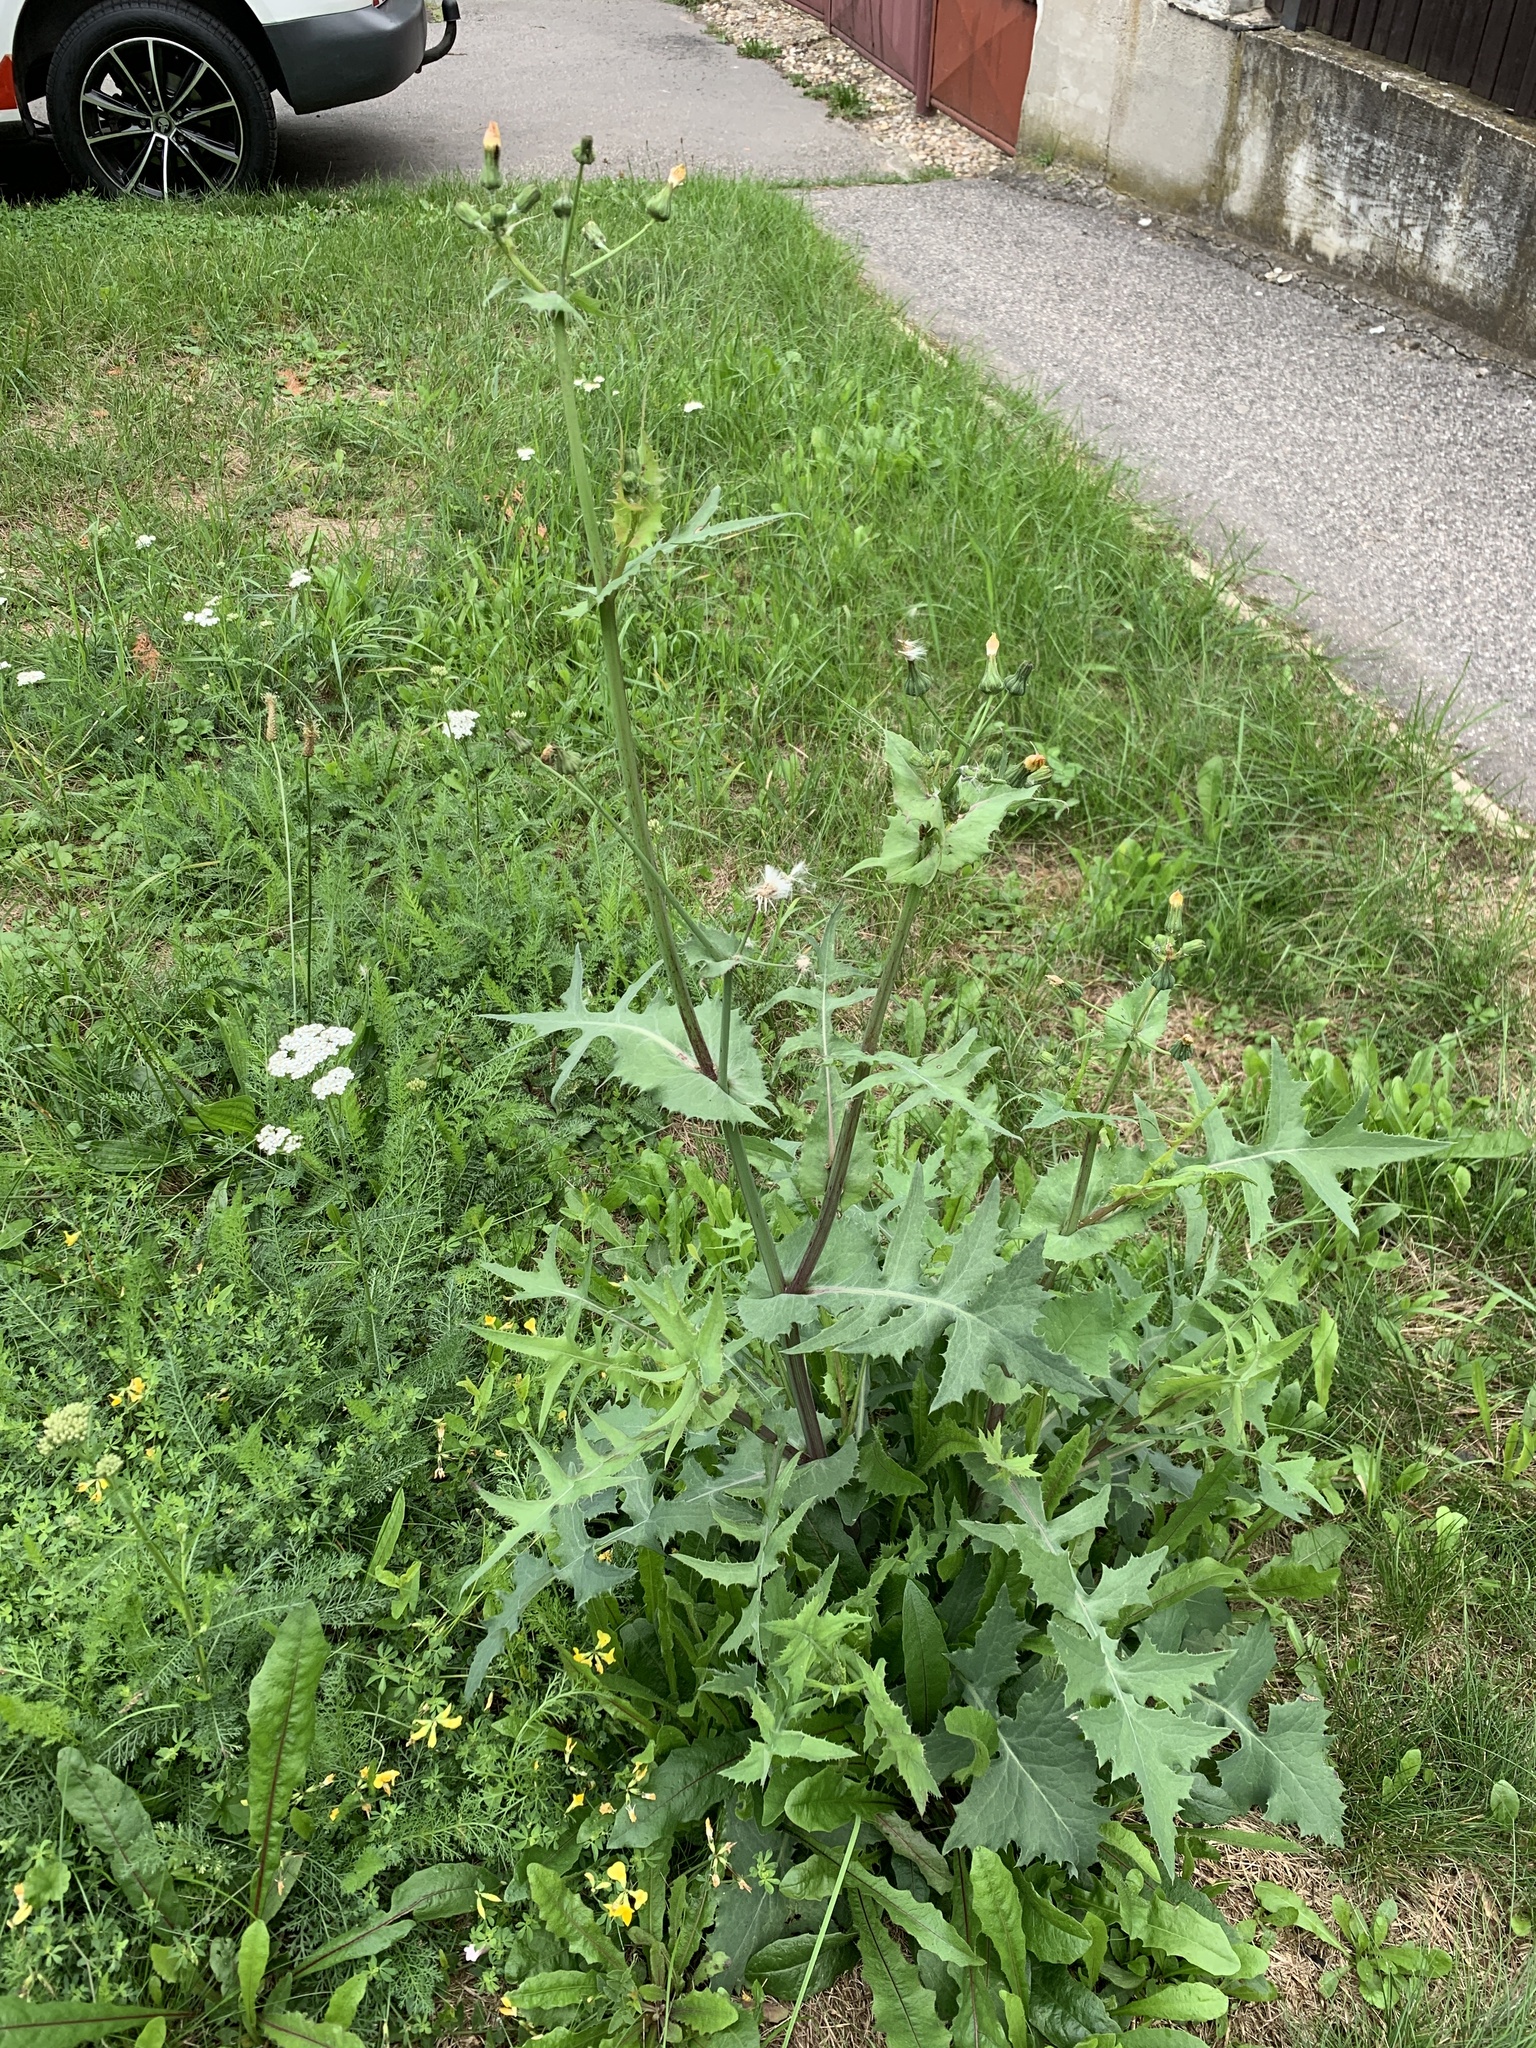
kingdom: Plantae
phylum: Tracheophyta
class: Magnoliopsida
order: Asterales
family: Asteraceae
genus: Sonchus
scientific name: Sonchus oleraceus
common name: Common sowthistle
